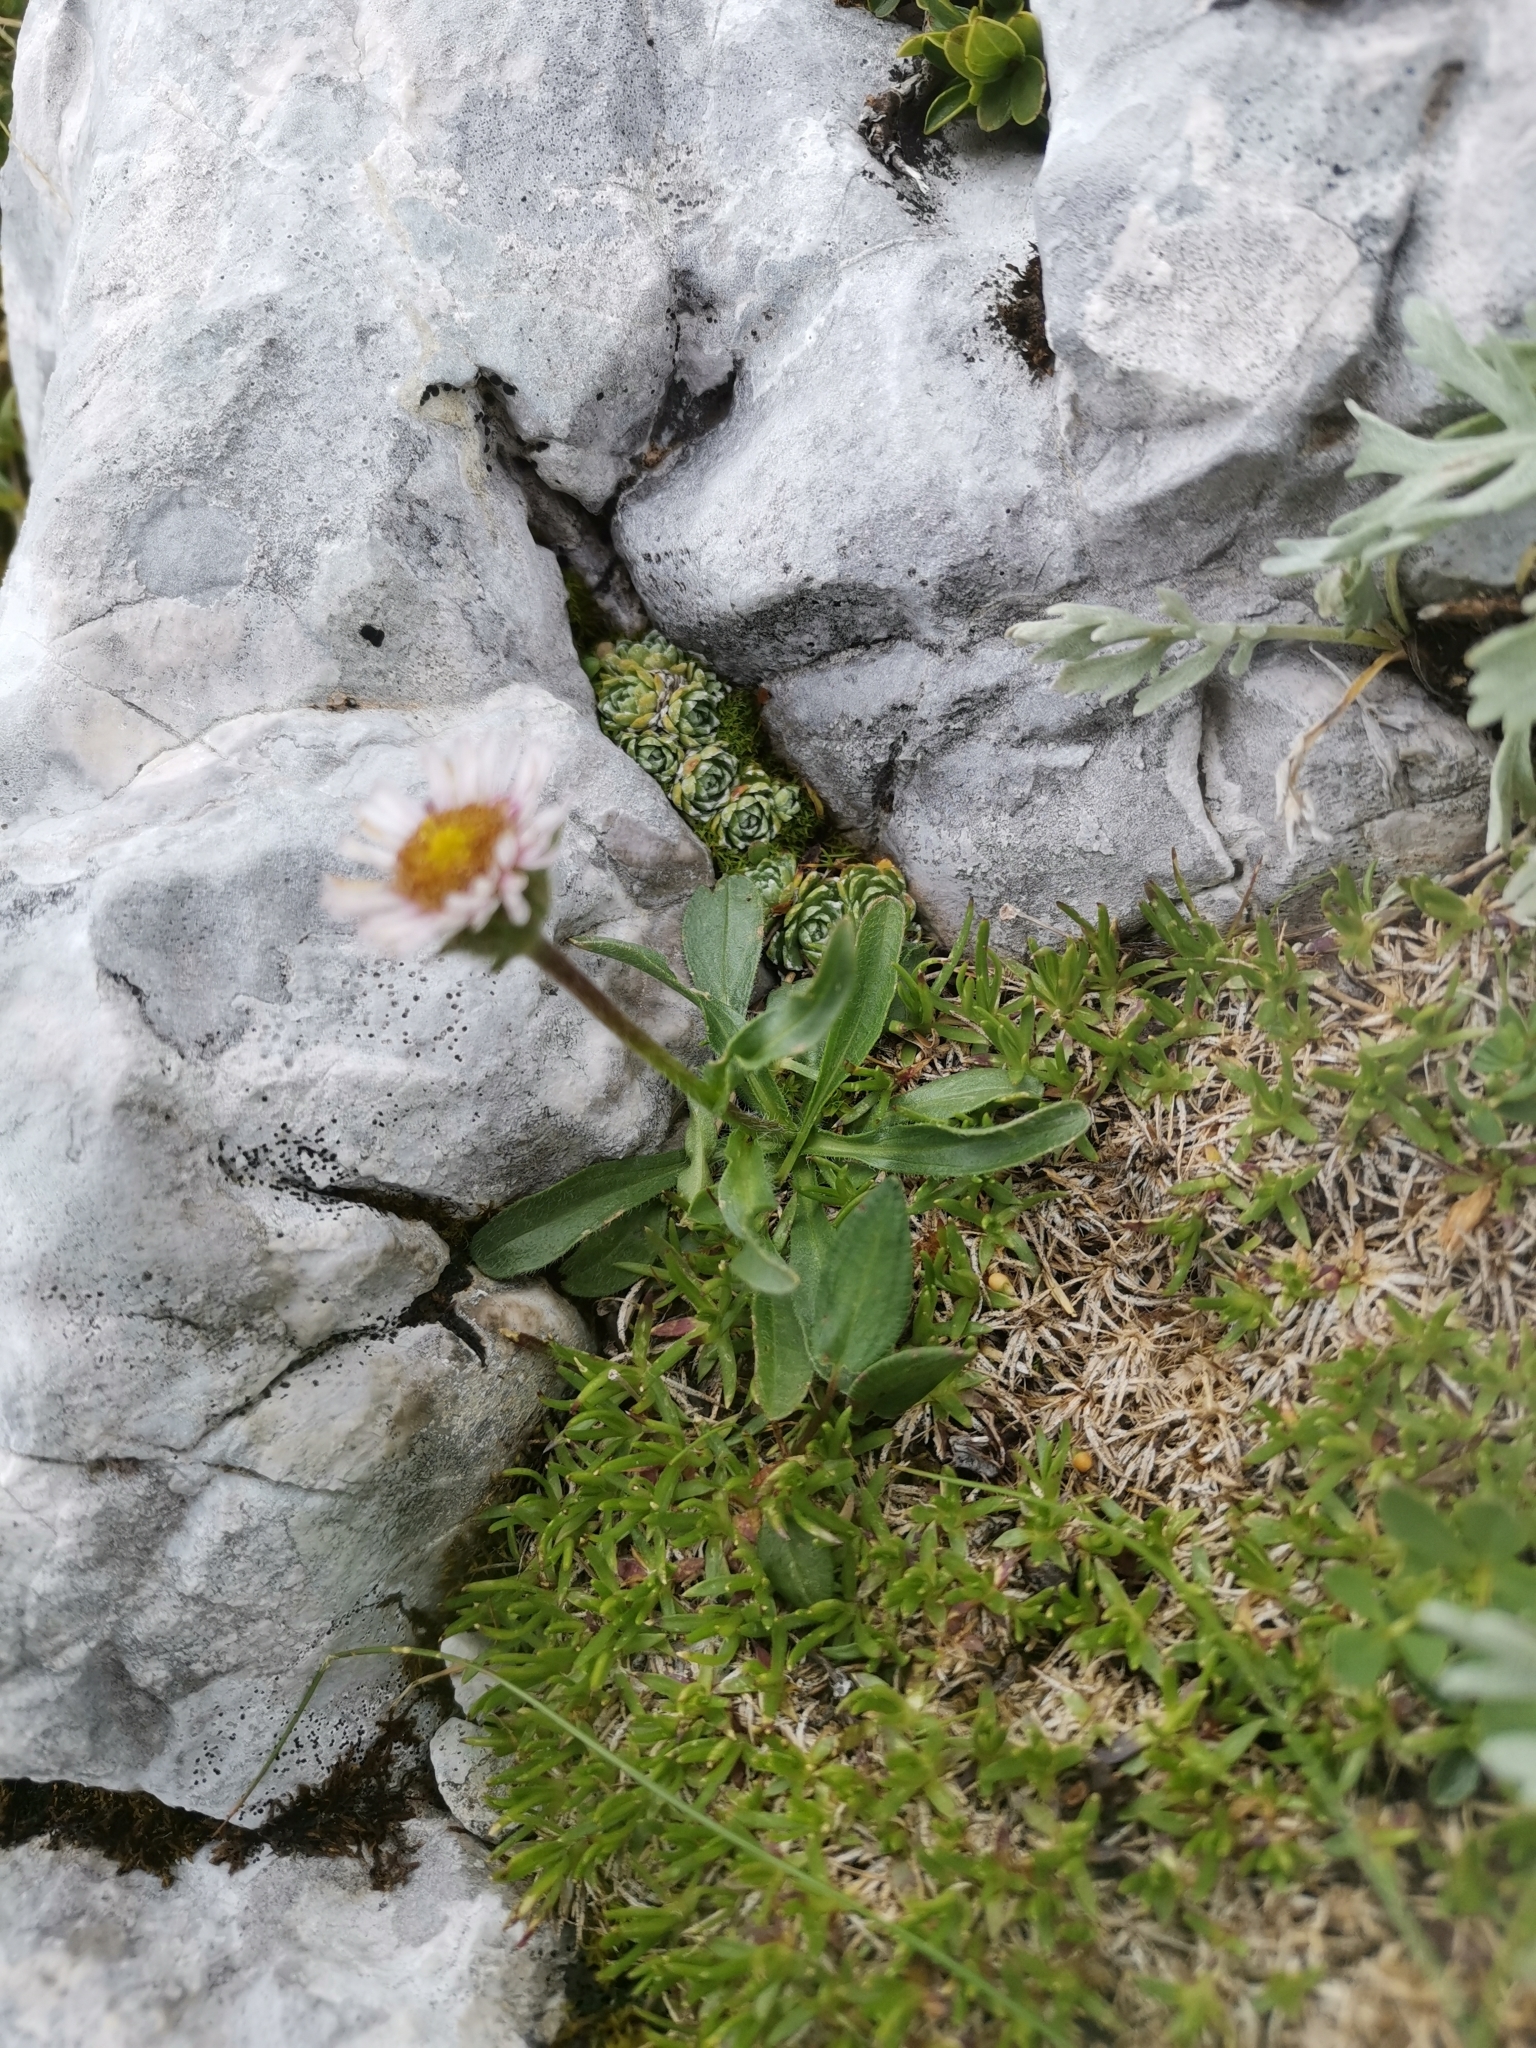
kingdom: Plantae
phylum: Tracheophyta
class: Magnoliopsida
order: Saxifragales
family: Saxifragaceae
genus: Saxifraga
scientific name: Saxifraga paniculata
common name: Livelong saxifrage
